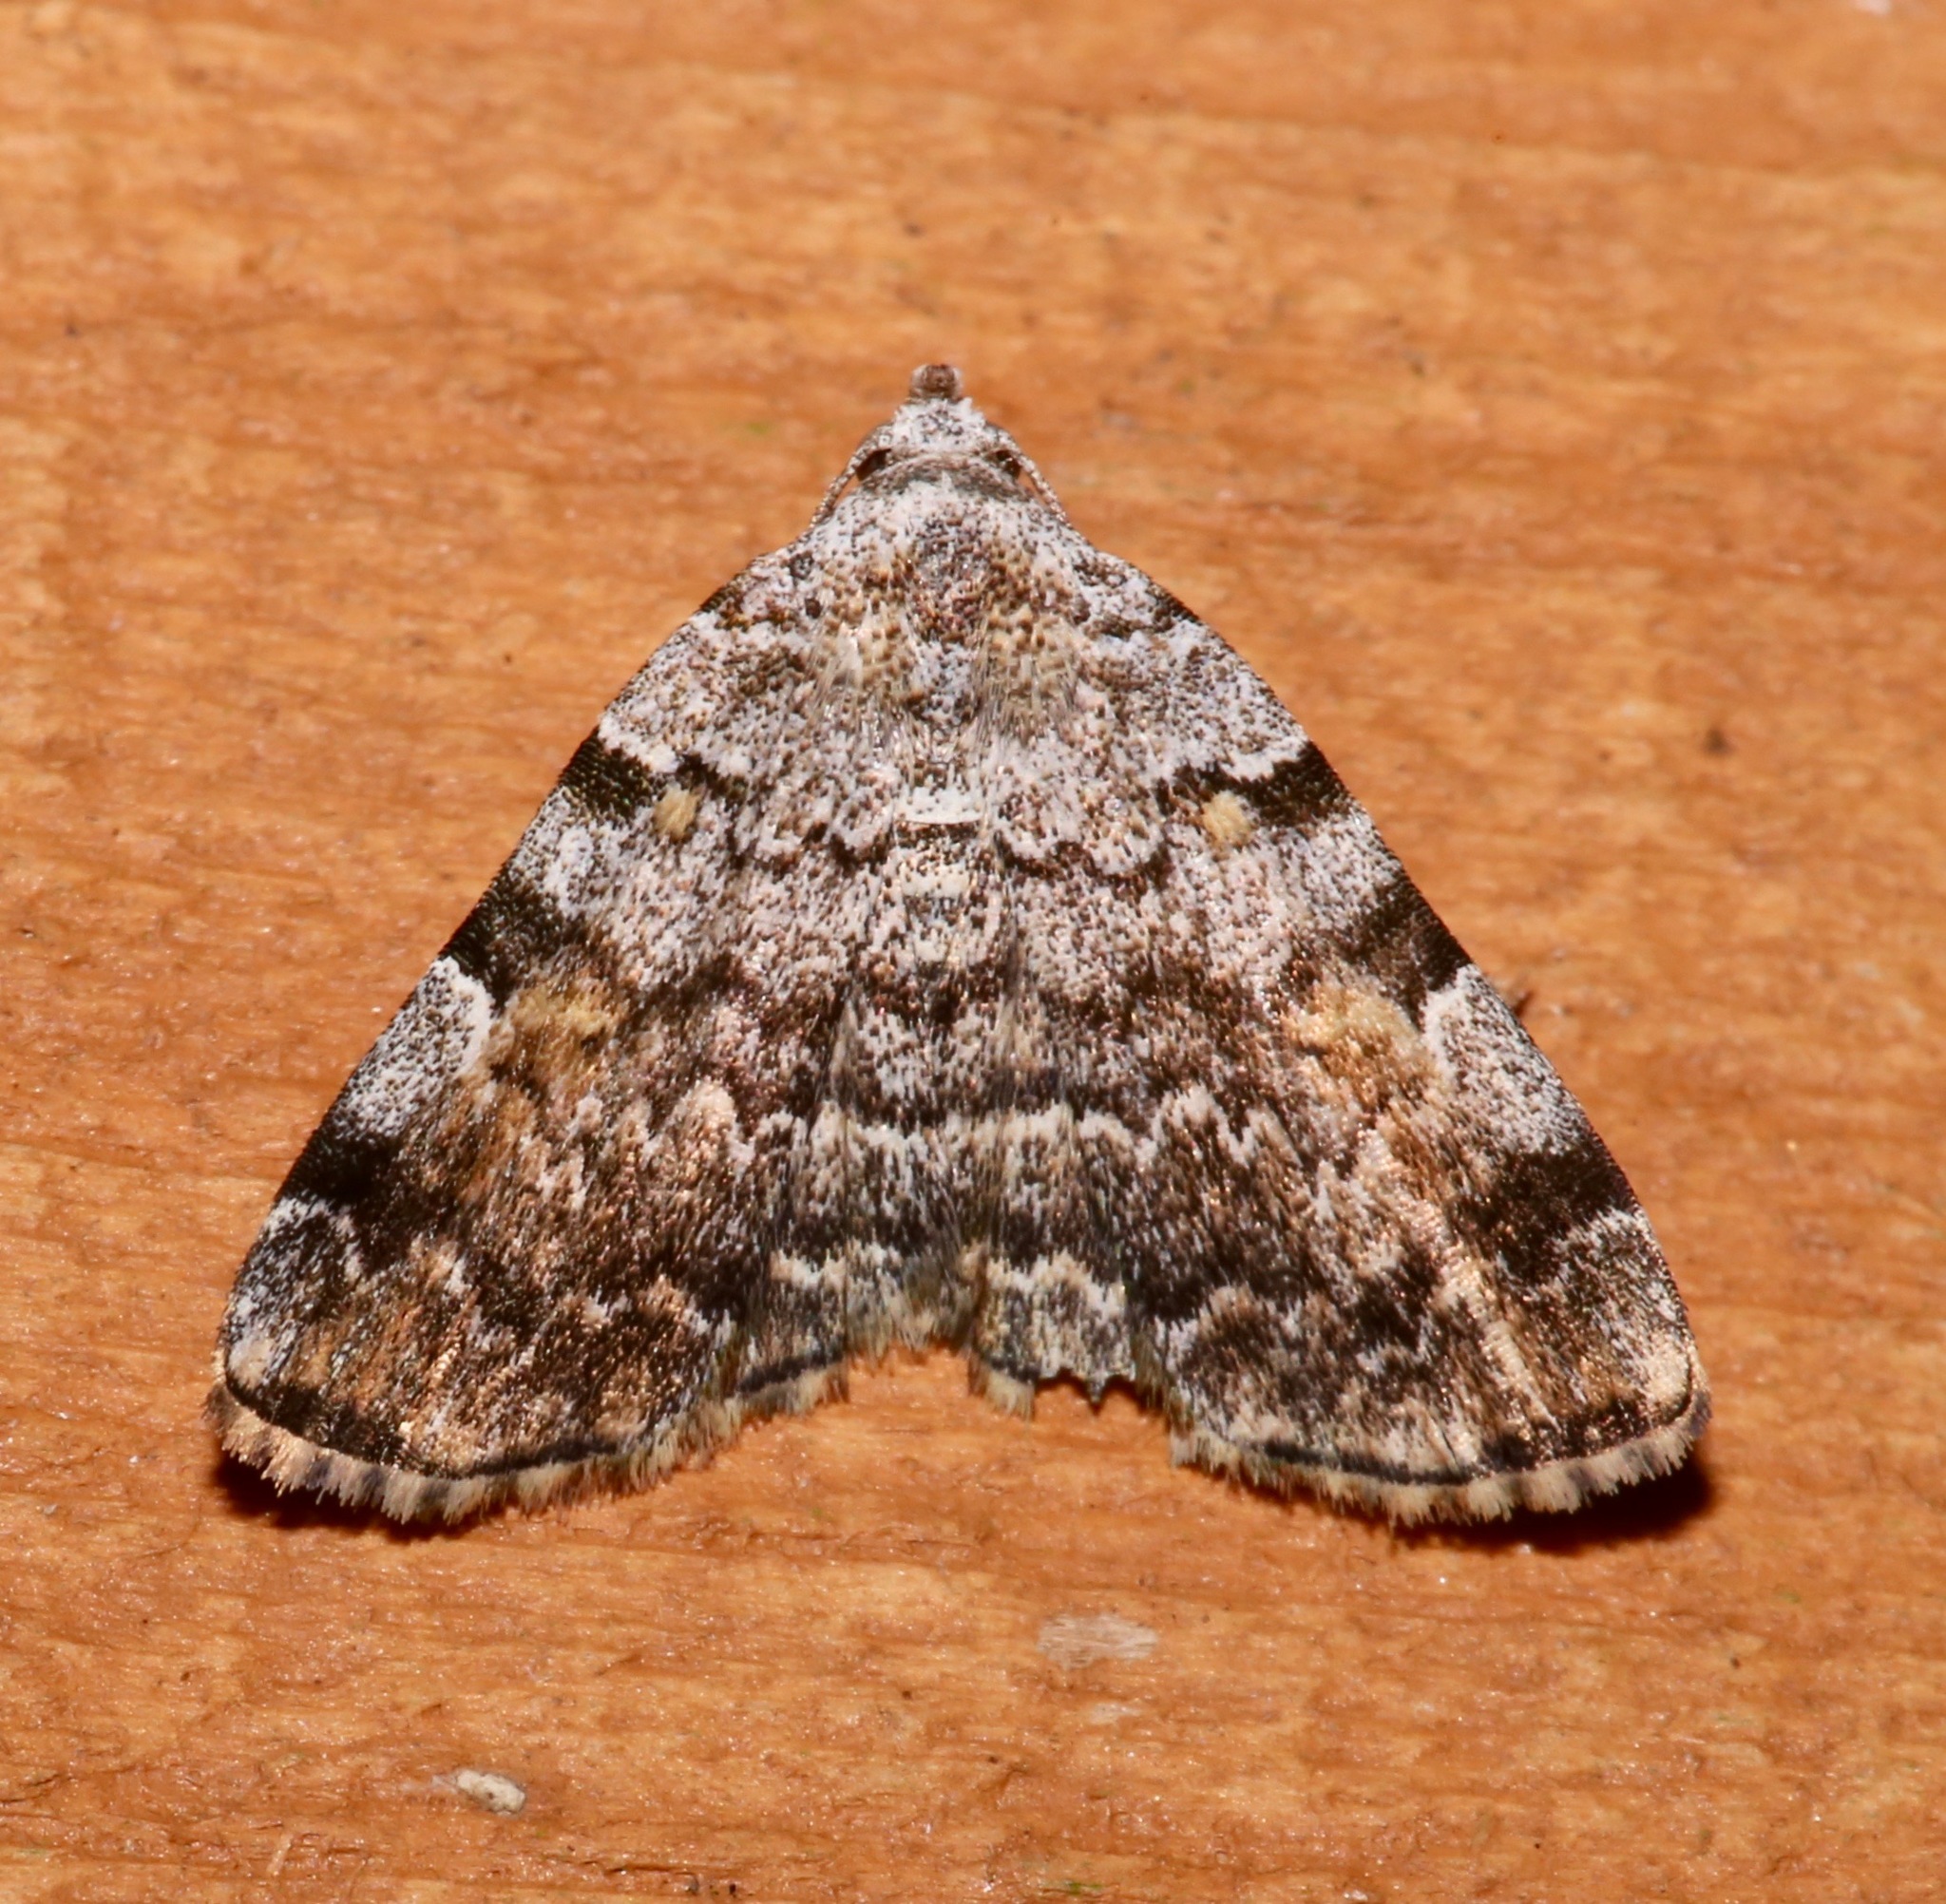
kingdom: Animalia
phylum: Arthropoda
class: Insecta
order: Lepidoptera
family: Erebidae
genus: Idia
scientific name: Idia americalis
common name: American idia moth
